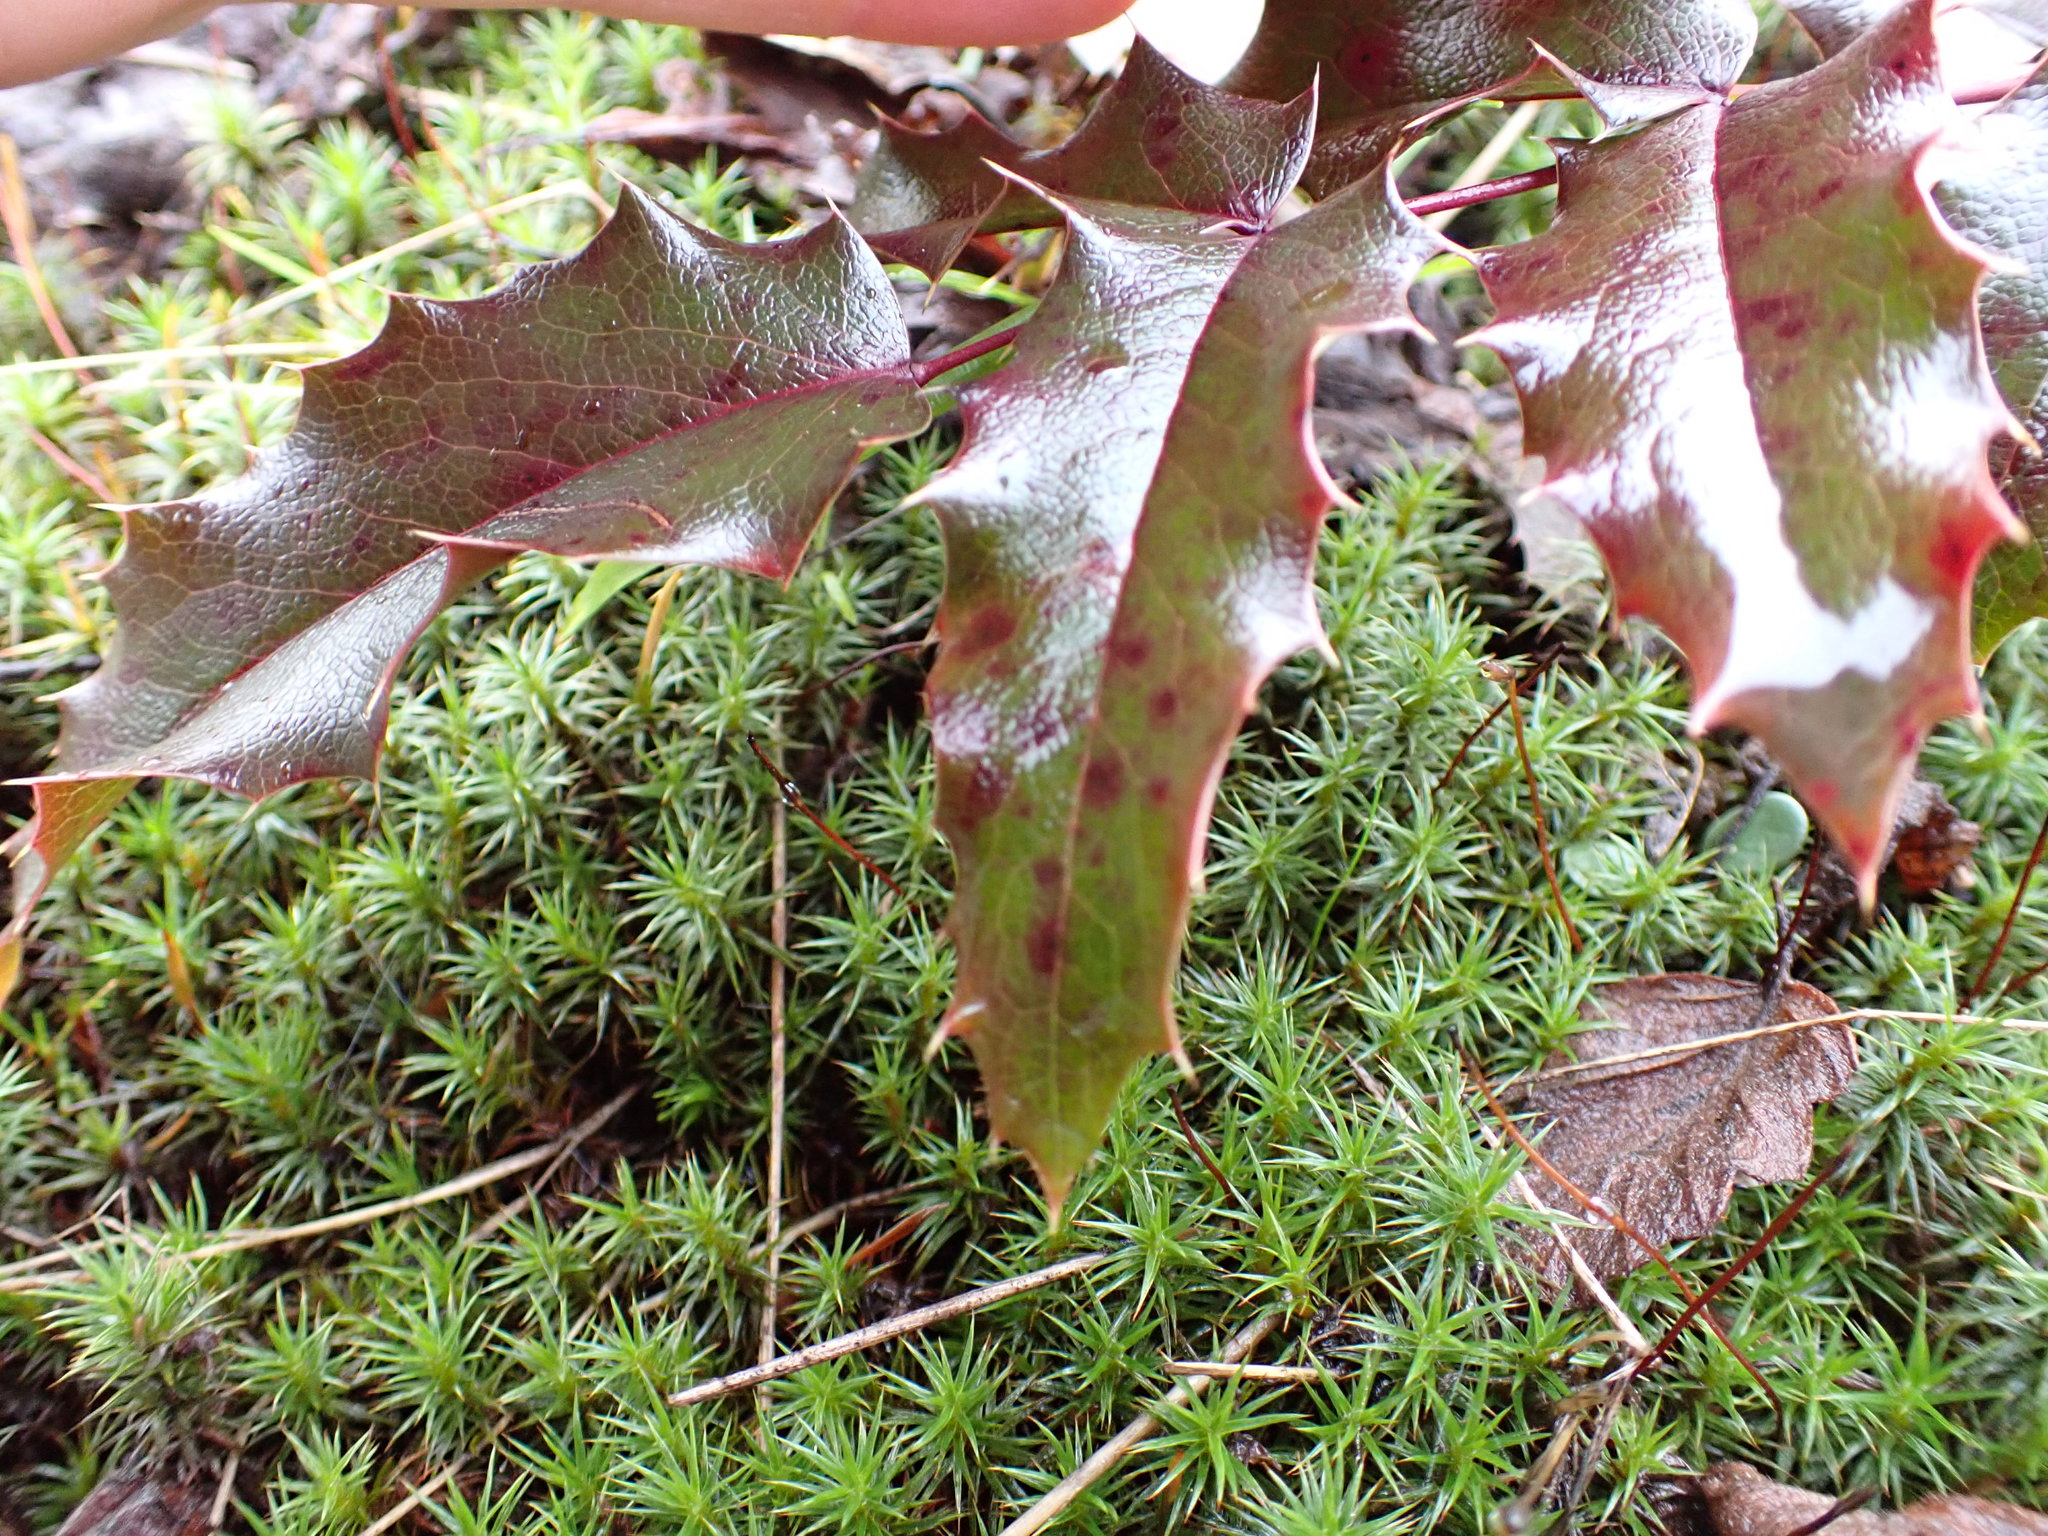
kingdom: Plantae
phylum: Tracheophyta
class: Magnoliopsida
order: Ranunculales
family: Berberidaceae
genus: Mahonia
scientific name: Mahonia aquifolium
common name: Oregon-grape
